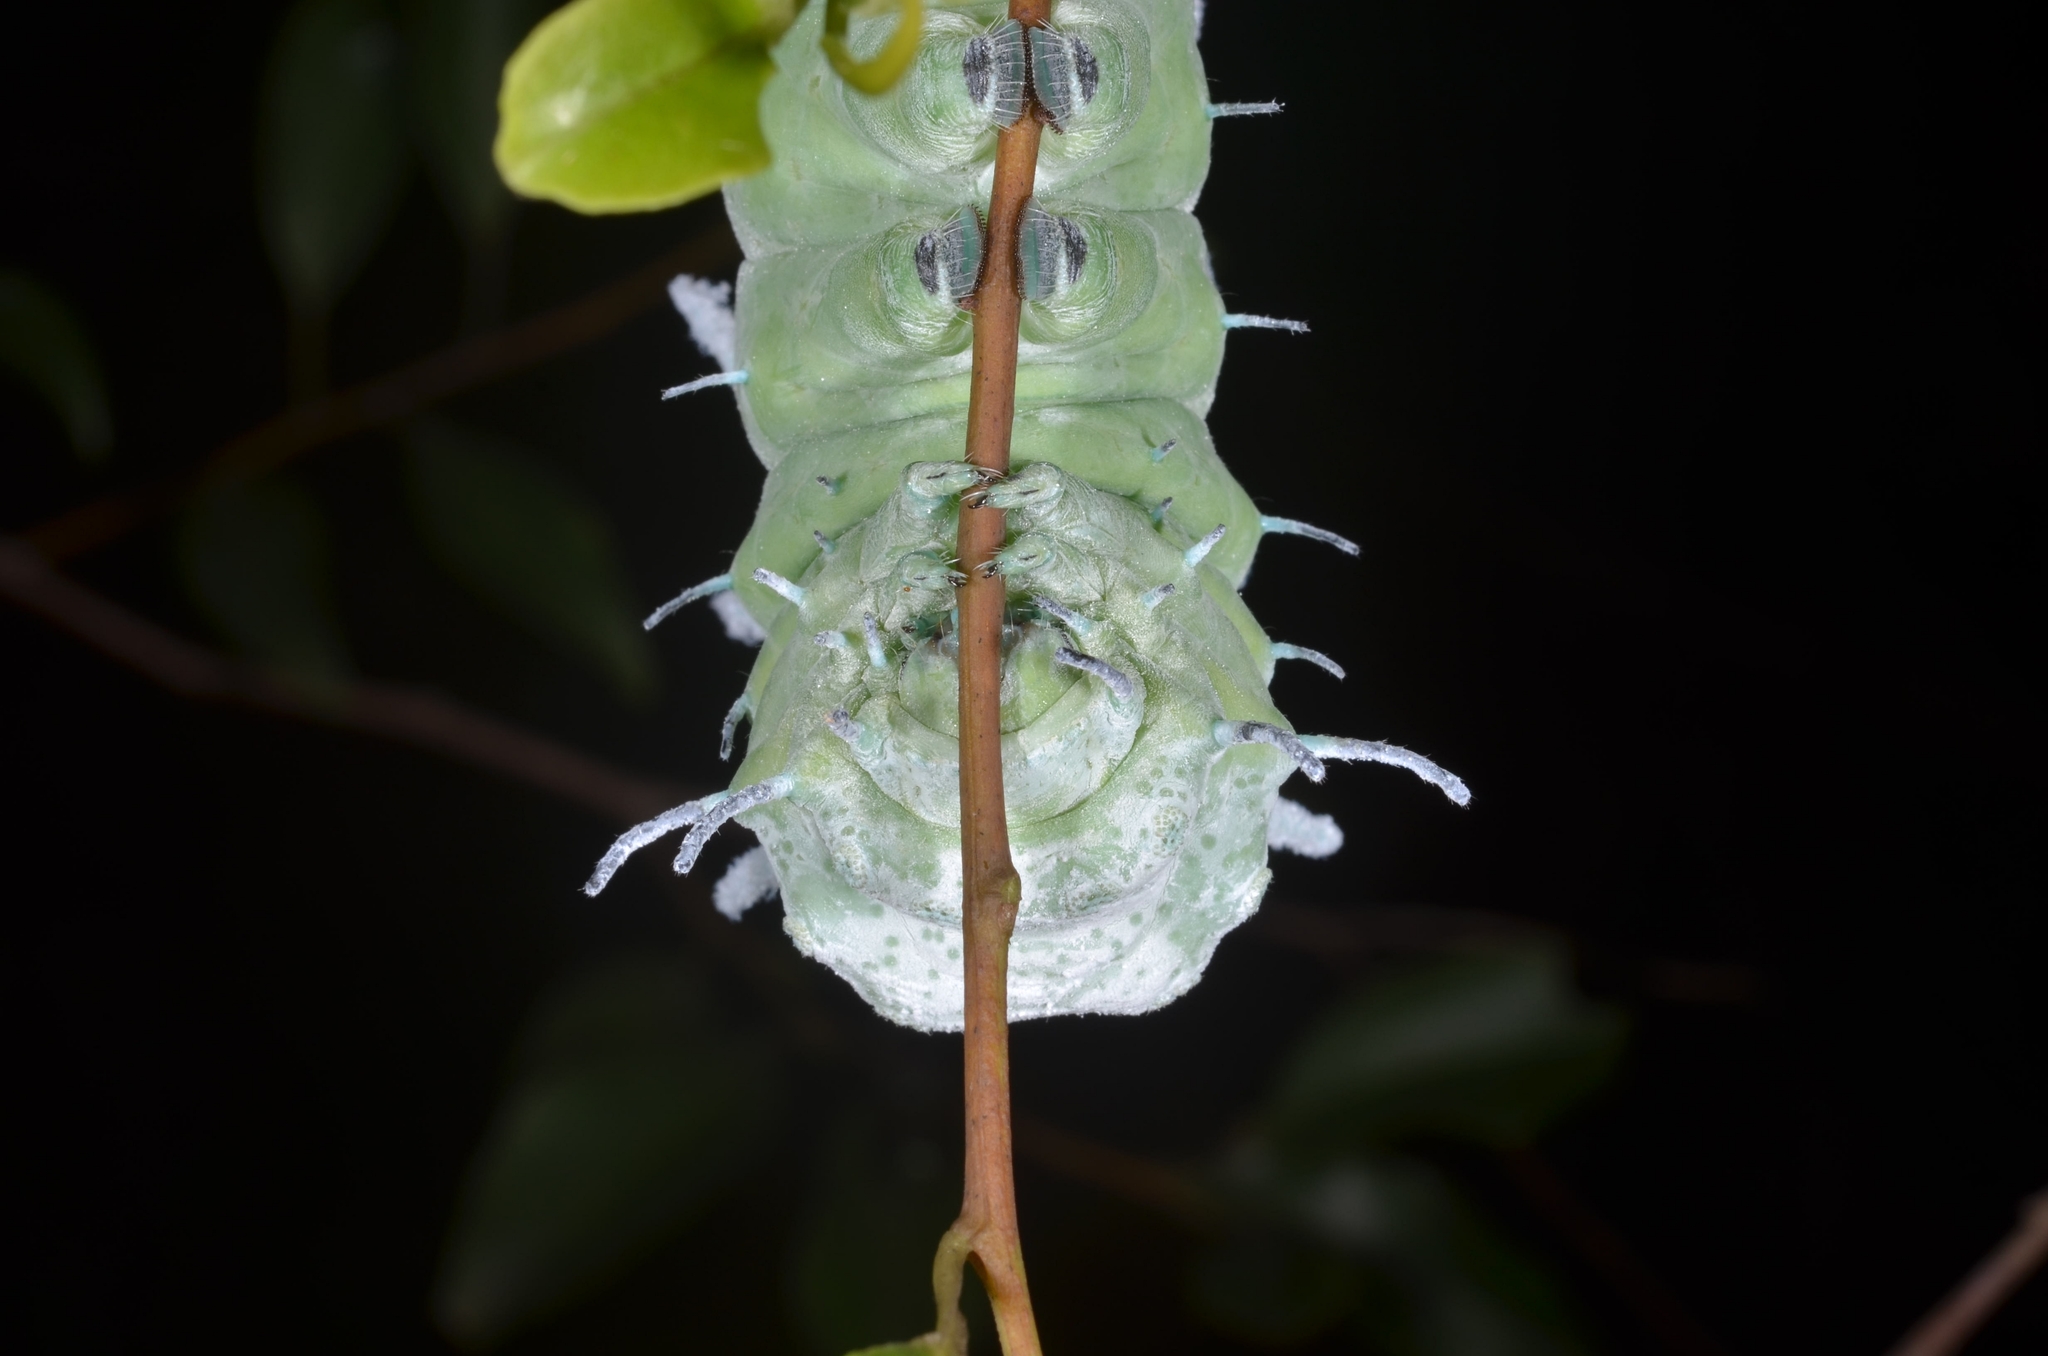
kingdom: Animalia
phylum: Arthropoda
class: Insecta
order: Lepidoptera
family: Saturniidae
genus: Attacus
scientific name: Attacus atlas
